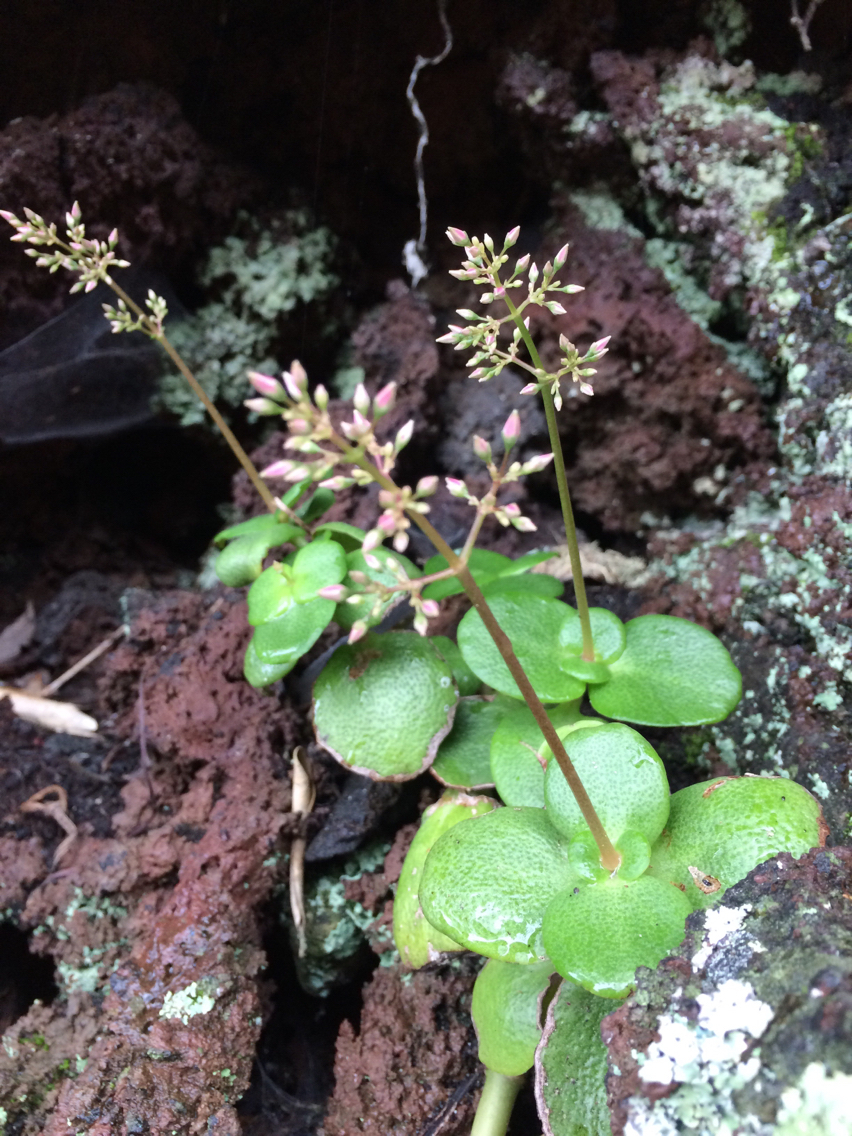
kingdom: Plantae
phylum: Tracheophyta
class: Magnoliopsida
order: Saxifragales
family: Crassulaceae
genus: Crassula
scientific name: Crassula multicava
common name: Cape province pygmyweed
